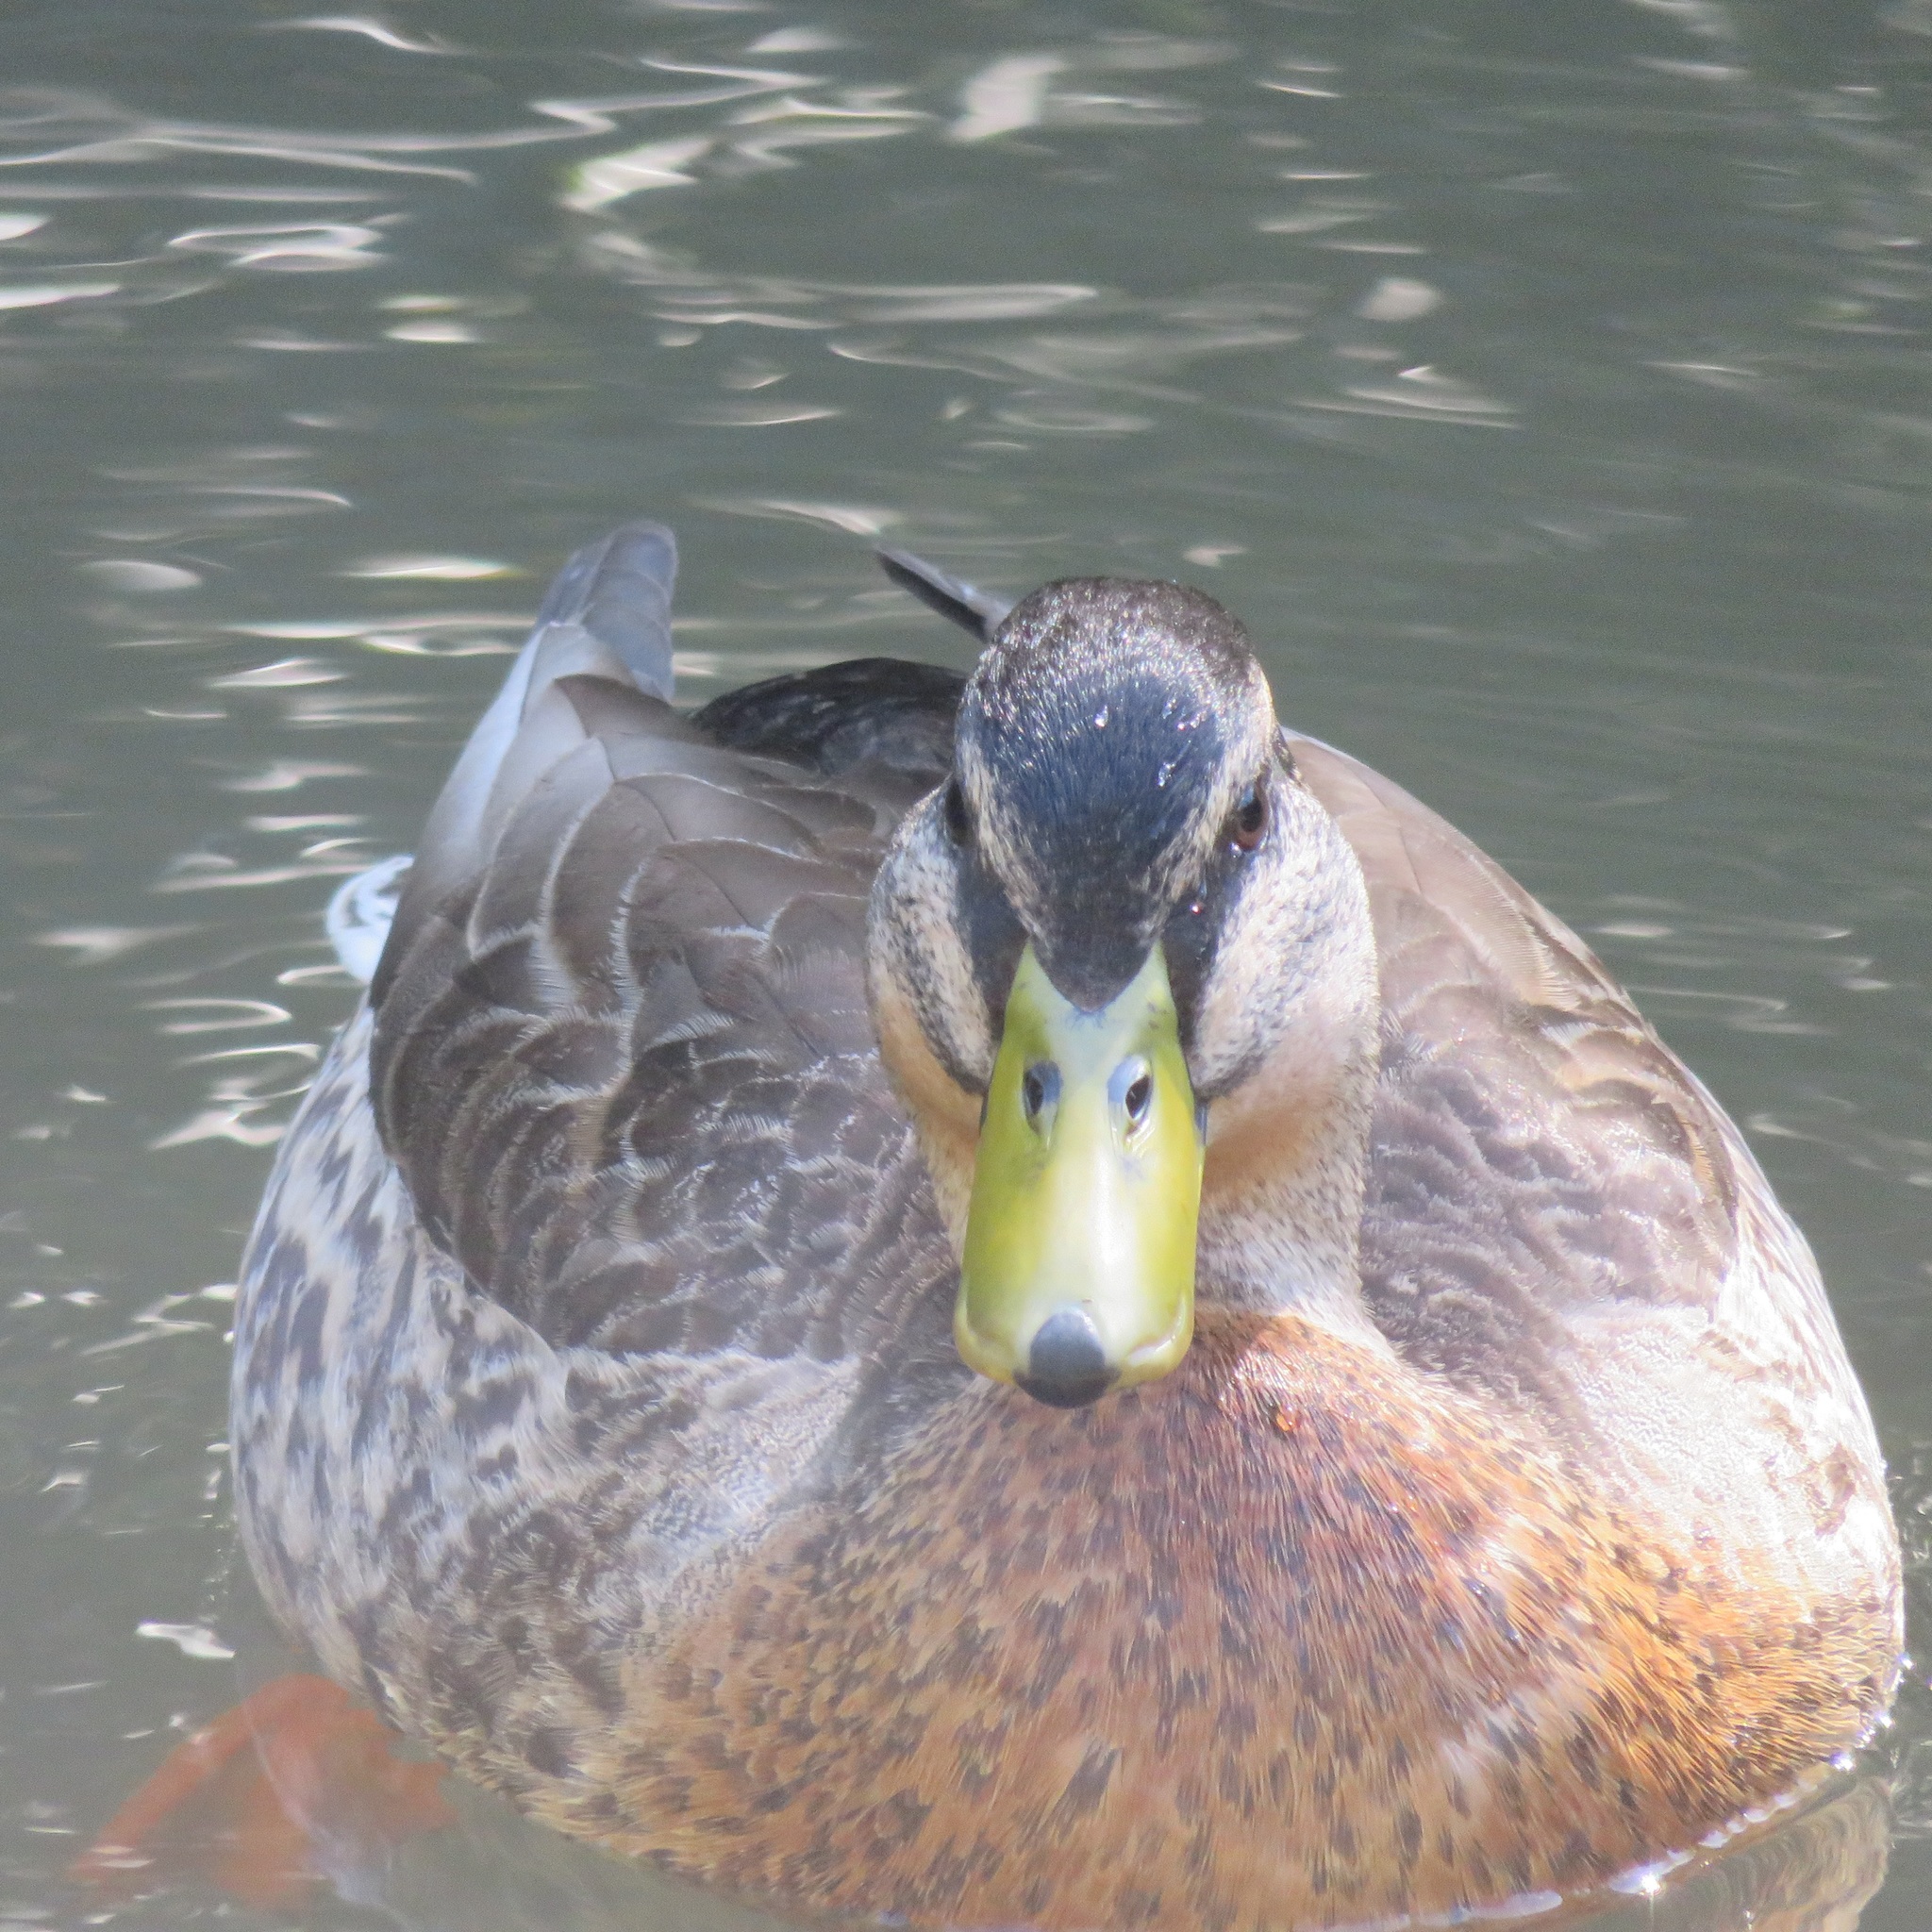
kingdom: Animalia
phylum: Chordata
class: Aves
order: Anseriformes
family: Anatidae
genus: Anas
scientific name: Anas
